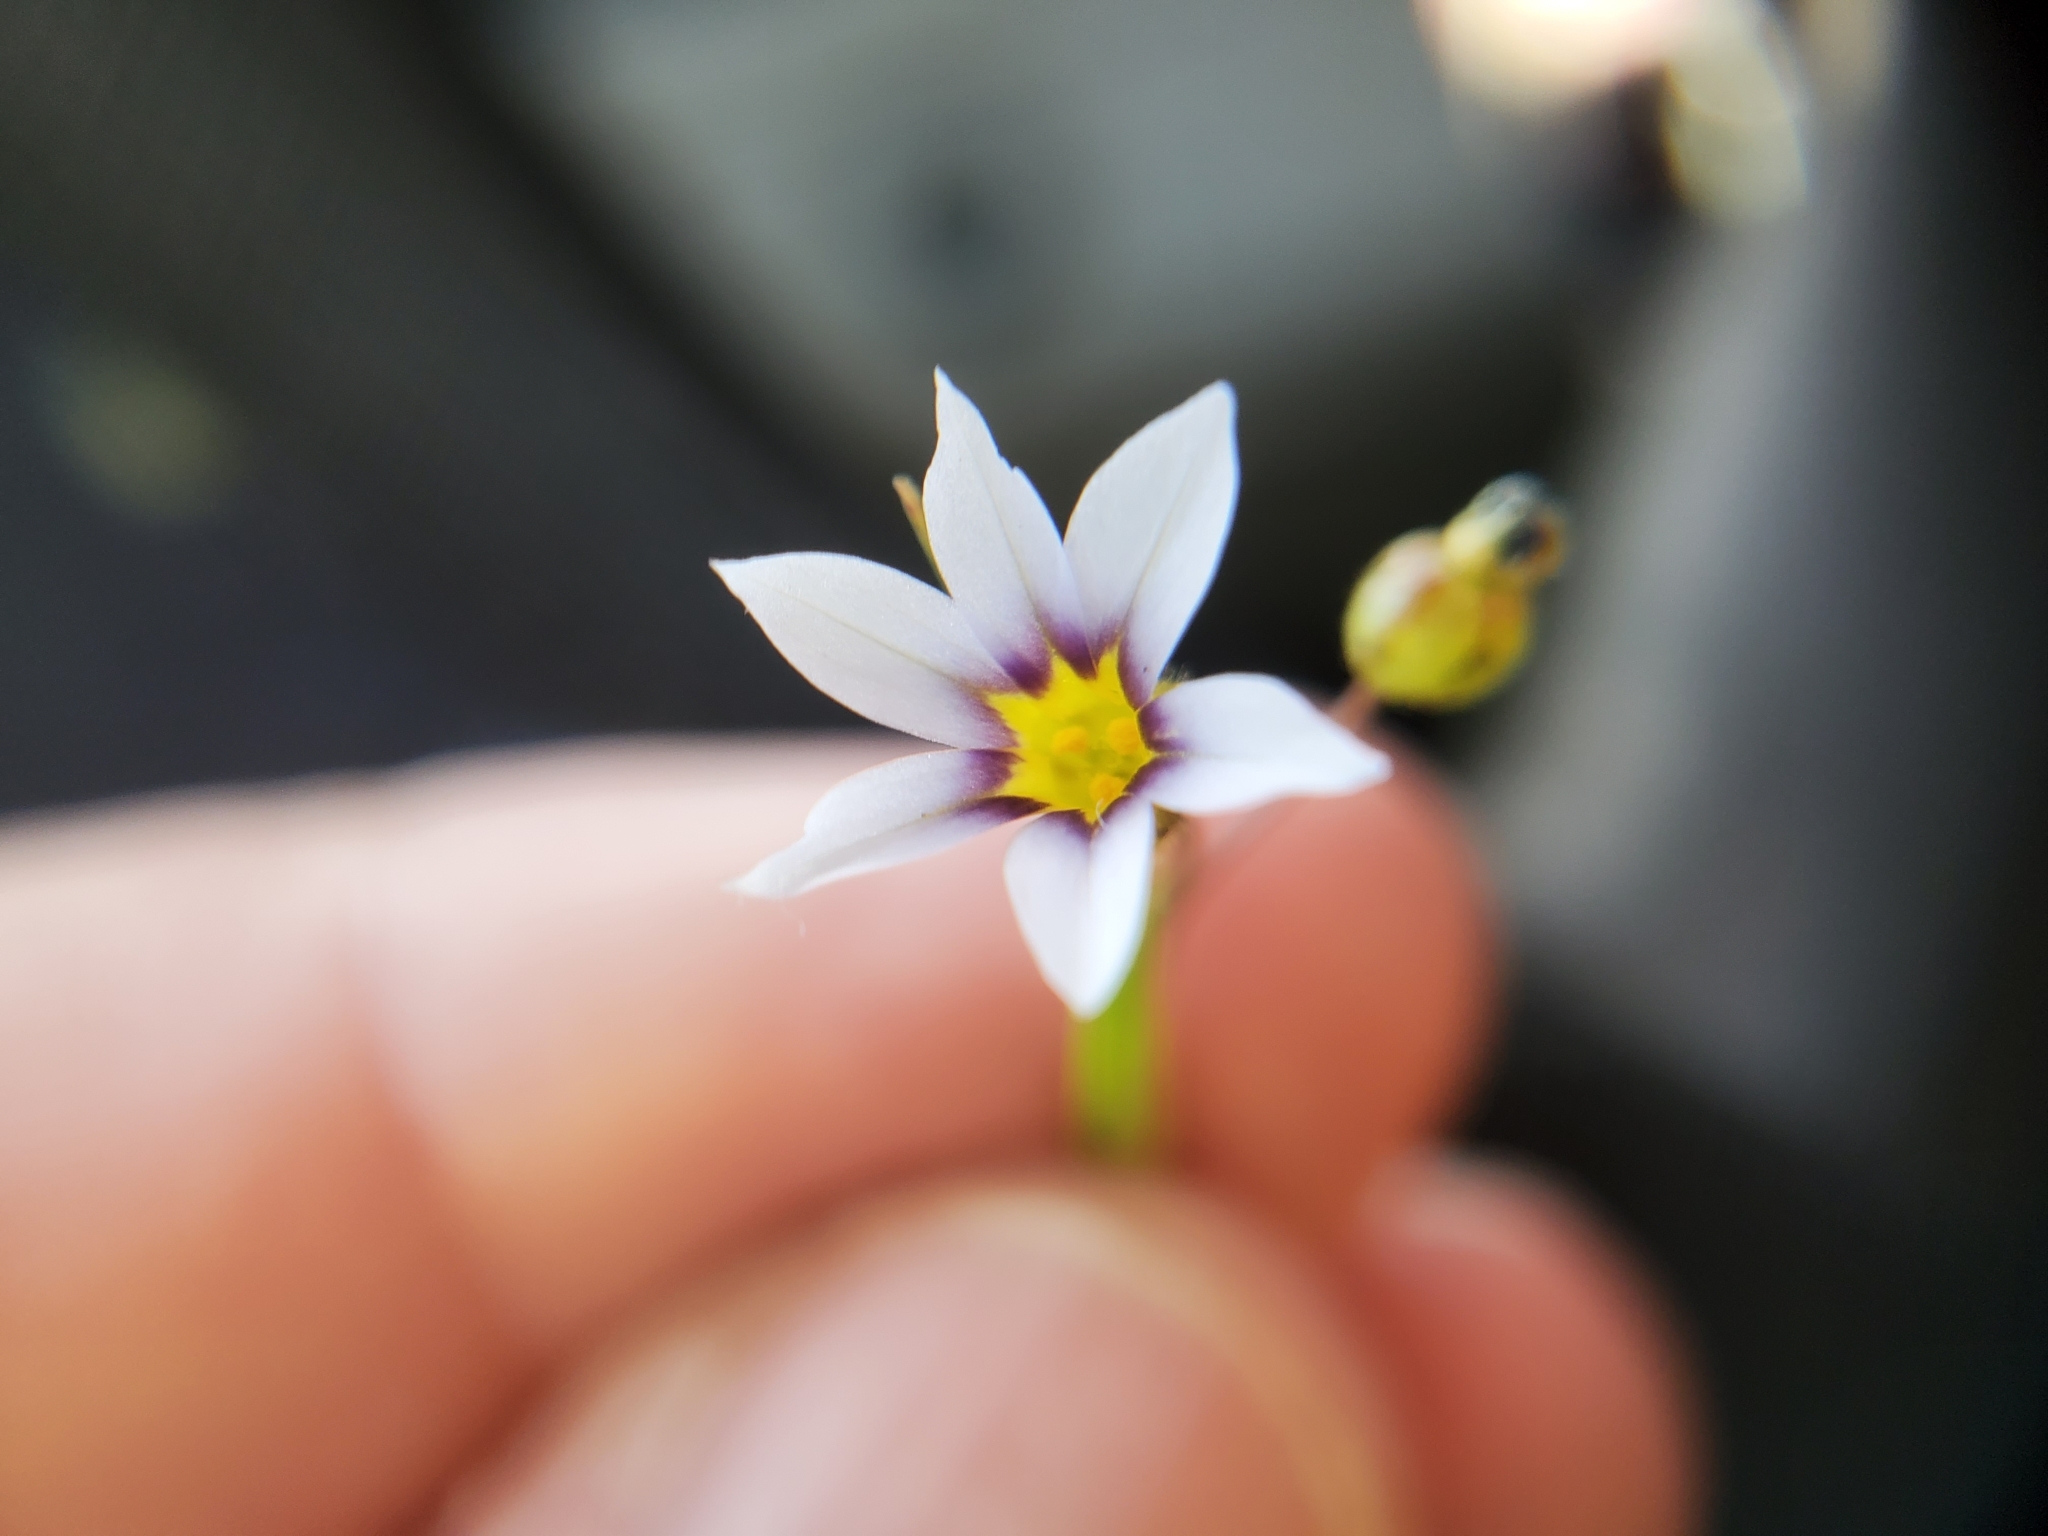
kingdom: Plantae
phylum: Tracheophyta
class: Liliopsida
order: Asparagales
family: Iridaceae
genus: Sisyrinchium
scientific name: Sisyrinchium micranthum
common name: Bermuda pigroot
